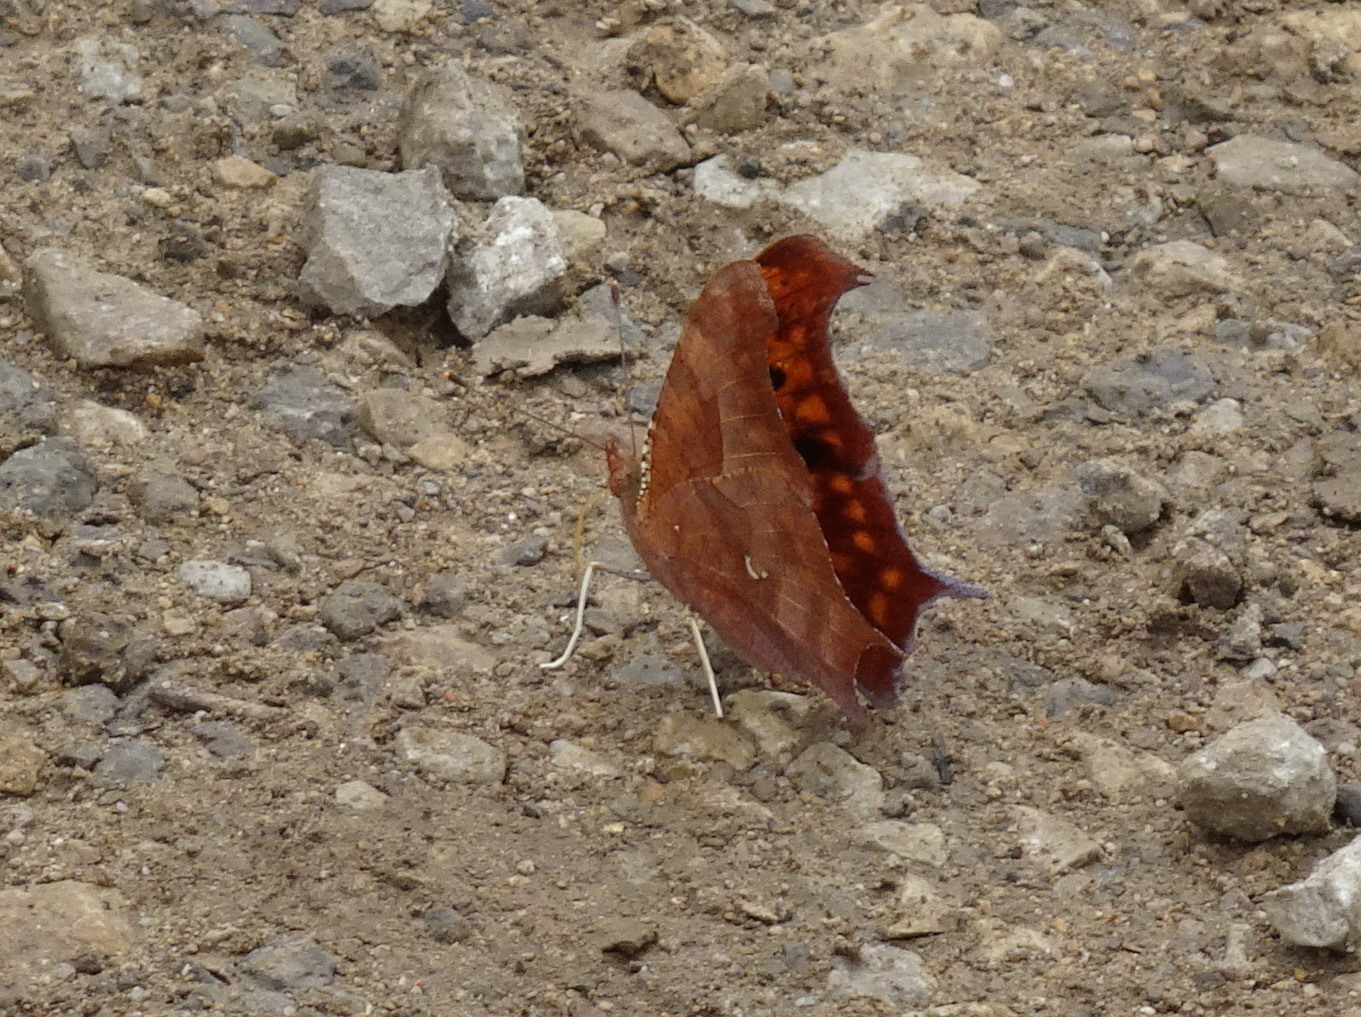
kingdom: Animalia
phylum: Arthropoda
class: Insecta
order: Lepidoptera
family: Nymphalidae
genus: Polygonia
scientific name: Polygonia interrogationis
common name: Question mark
